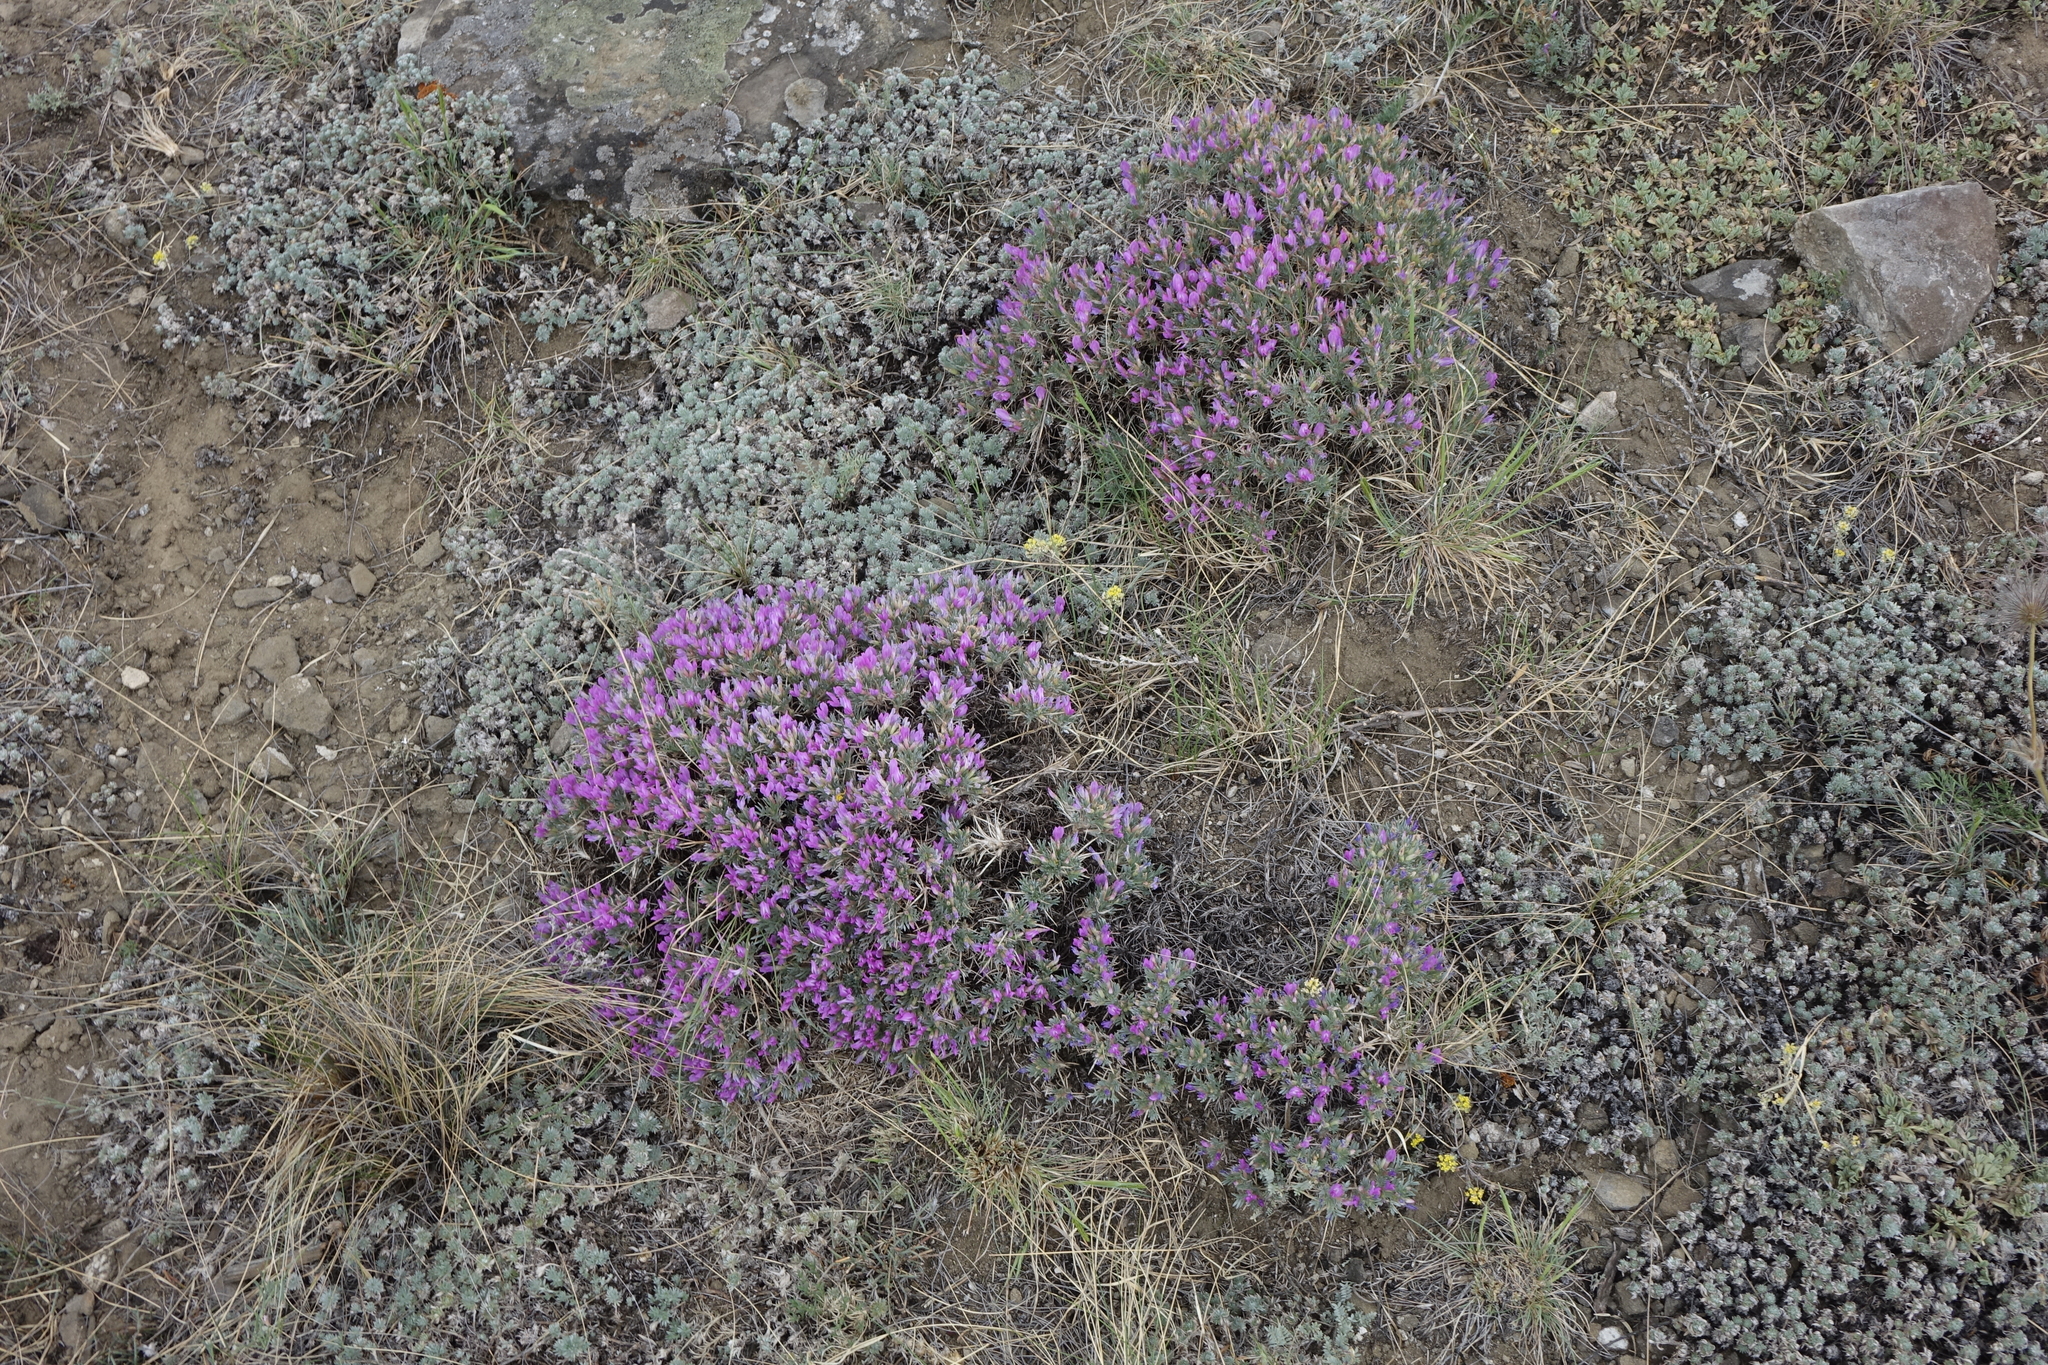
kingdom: Plantae
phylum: Tracheophyta
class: Magnoliopsida
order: Fabales
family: Fabaceae
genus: Oxytropis
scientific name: Oxytropis borissoviae
